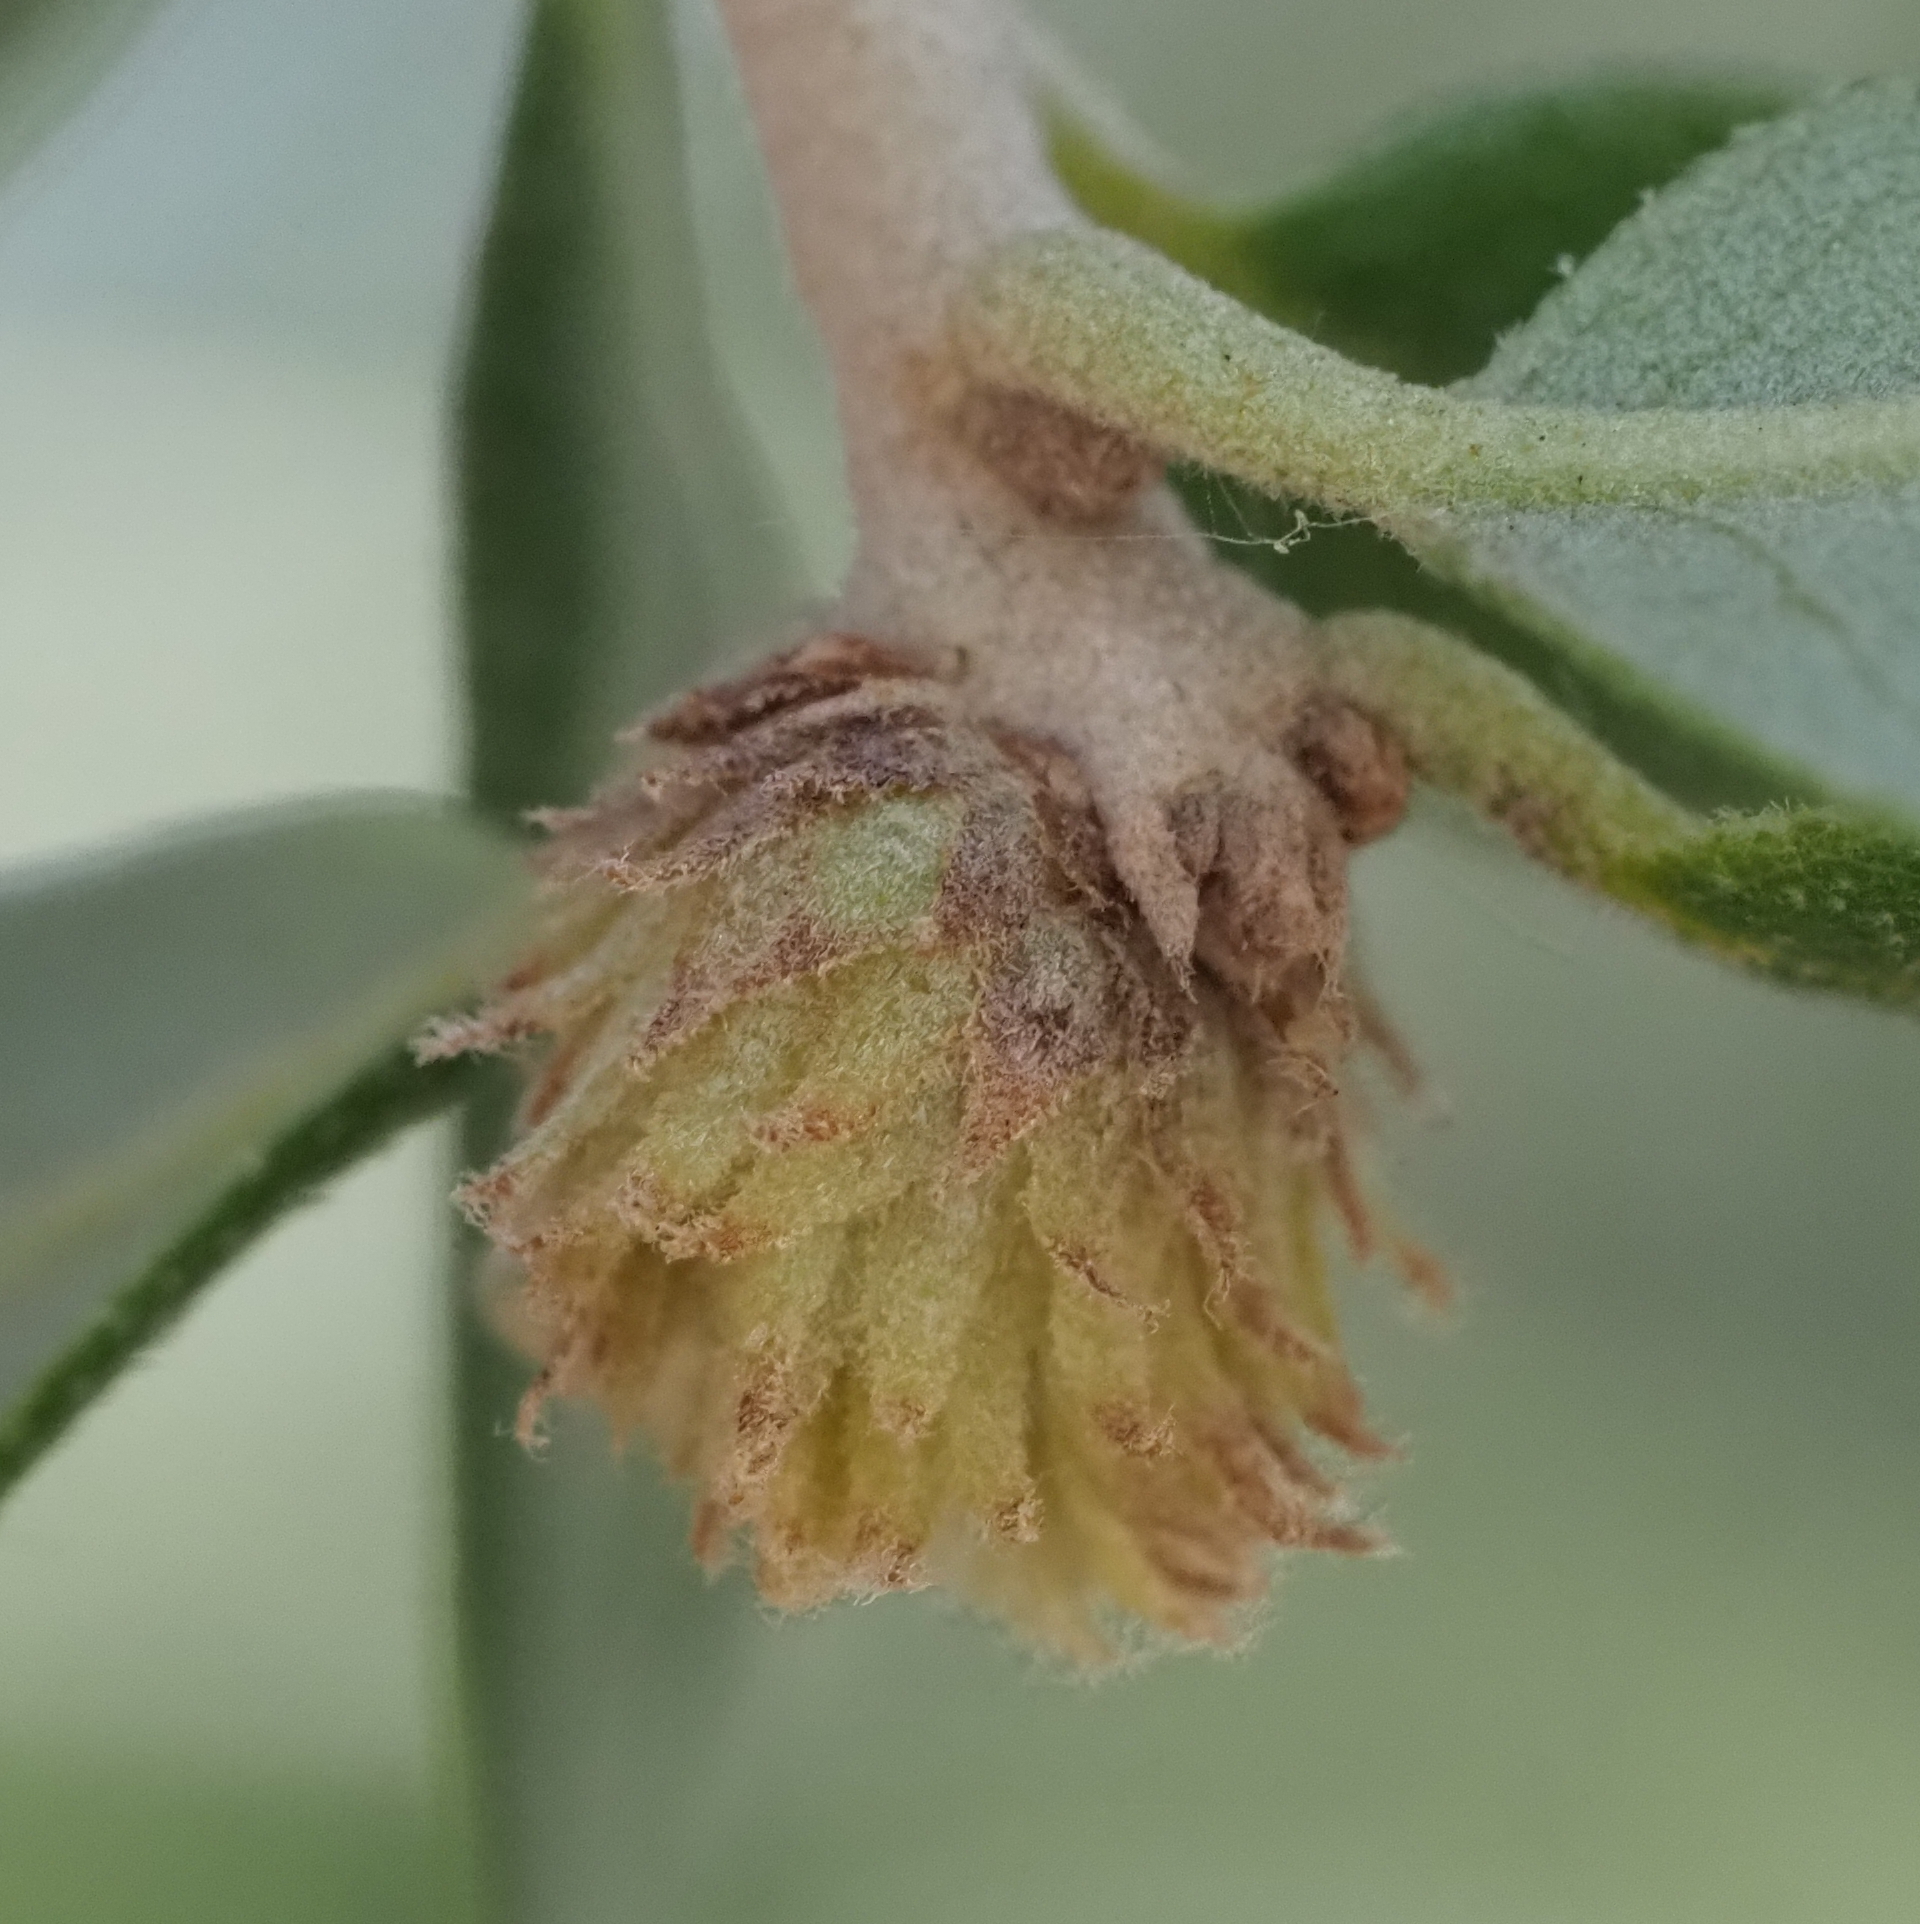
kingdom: Animalia
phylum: Arthropoda
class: Insecta
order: Hymenoptera
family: Cynipidae
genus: Andricus
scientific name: Andricus quercusfoliatus
